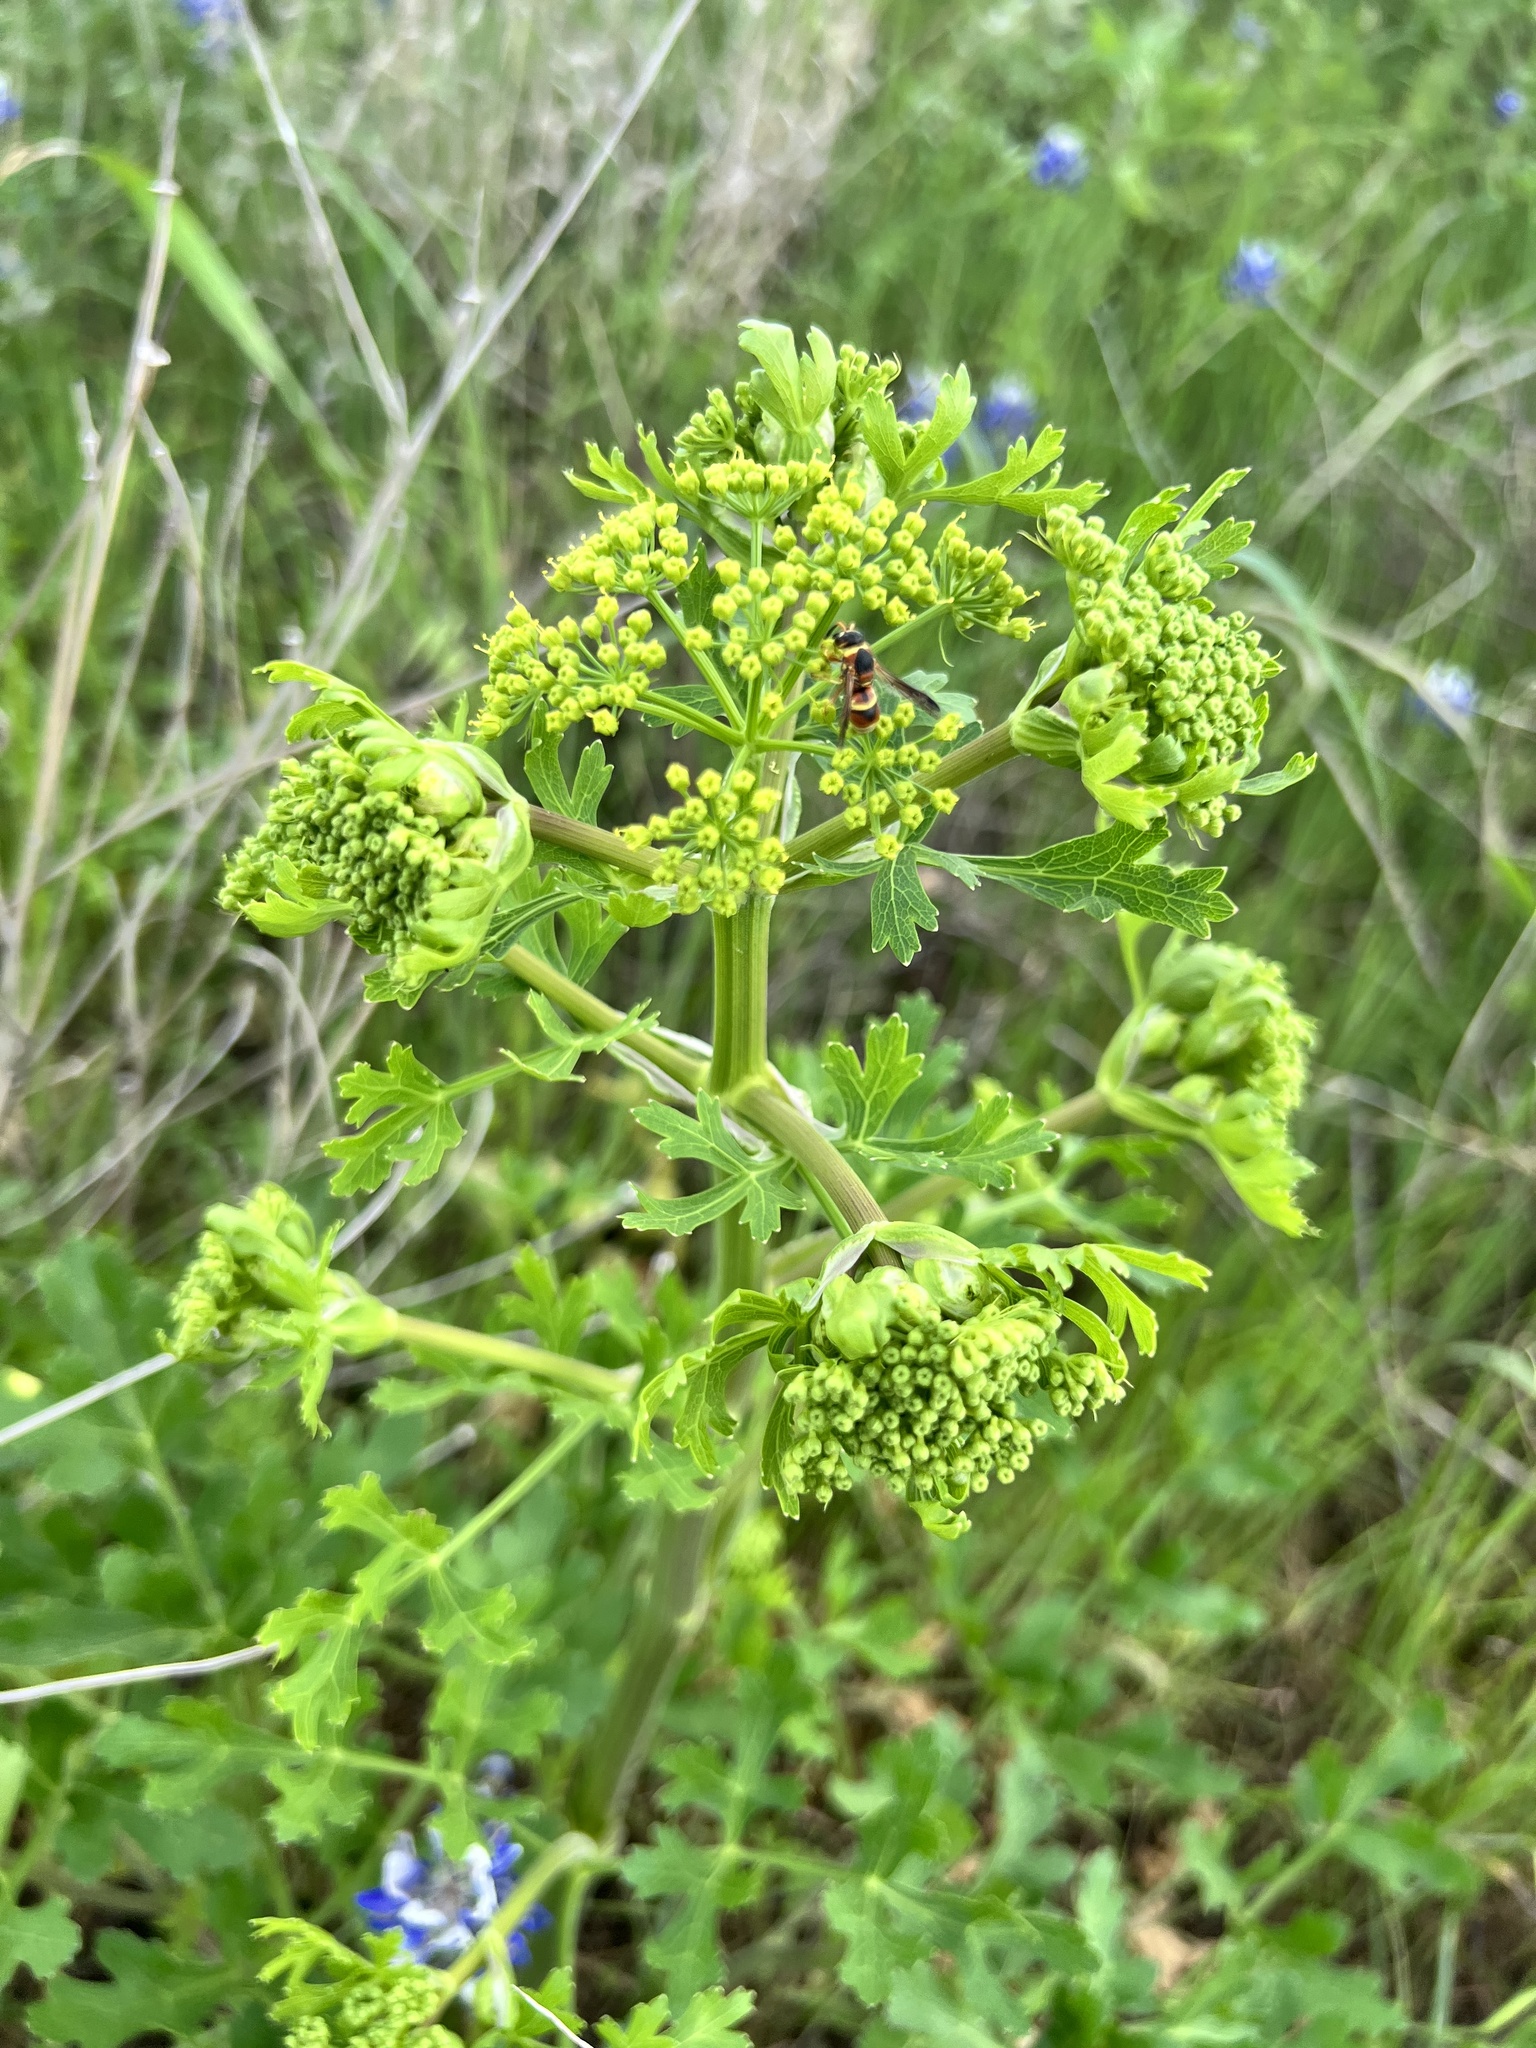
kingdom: Plantae
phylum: Tracheophyta
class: Magnoliopsida
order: Apiales
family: Apiaceae
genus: Polytaenia
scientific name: Polytaenia texana
